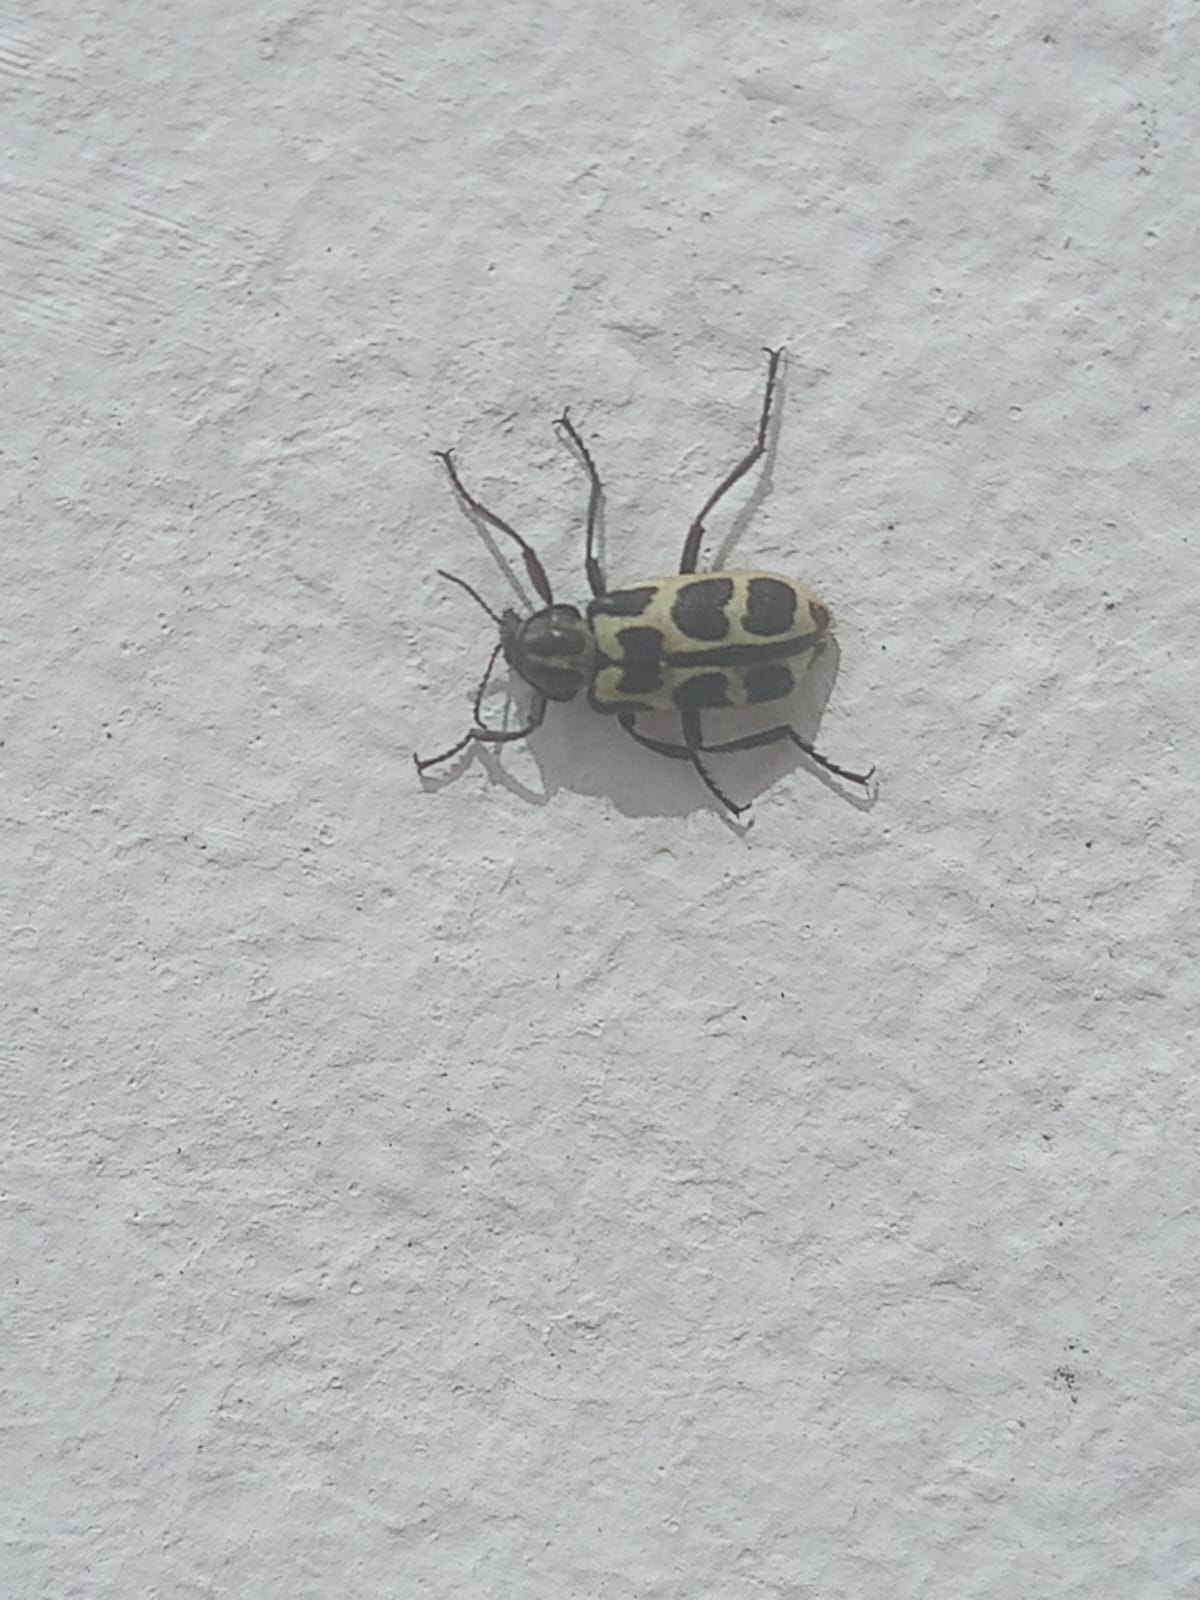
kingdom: Animalia
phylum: Arthropoda
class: Insecta
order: Coleoptera
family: Melyridae
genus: Astylus
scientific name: Astylus atromaculatus
